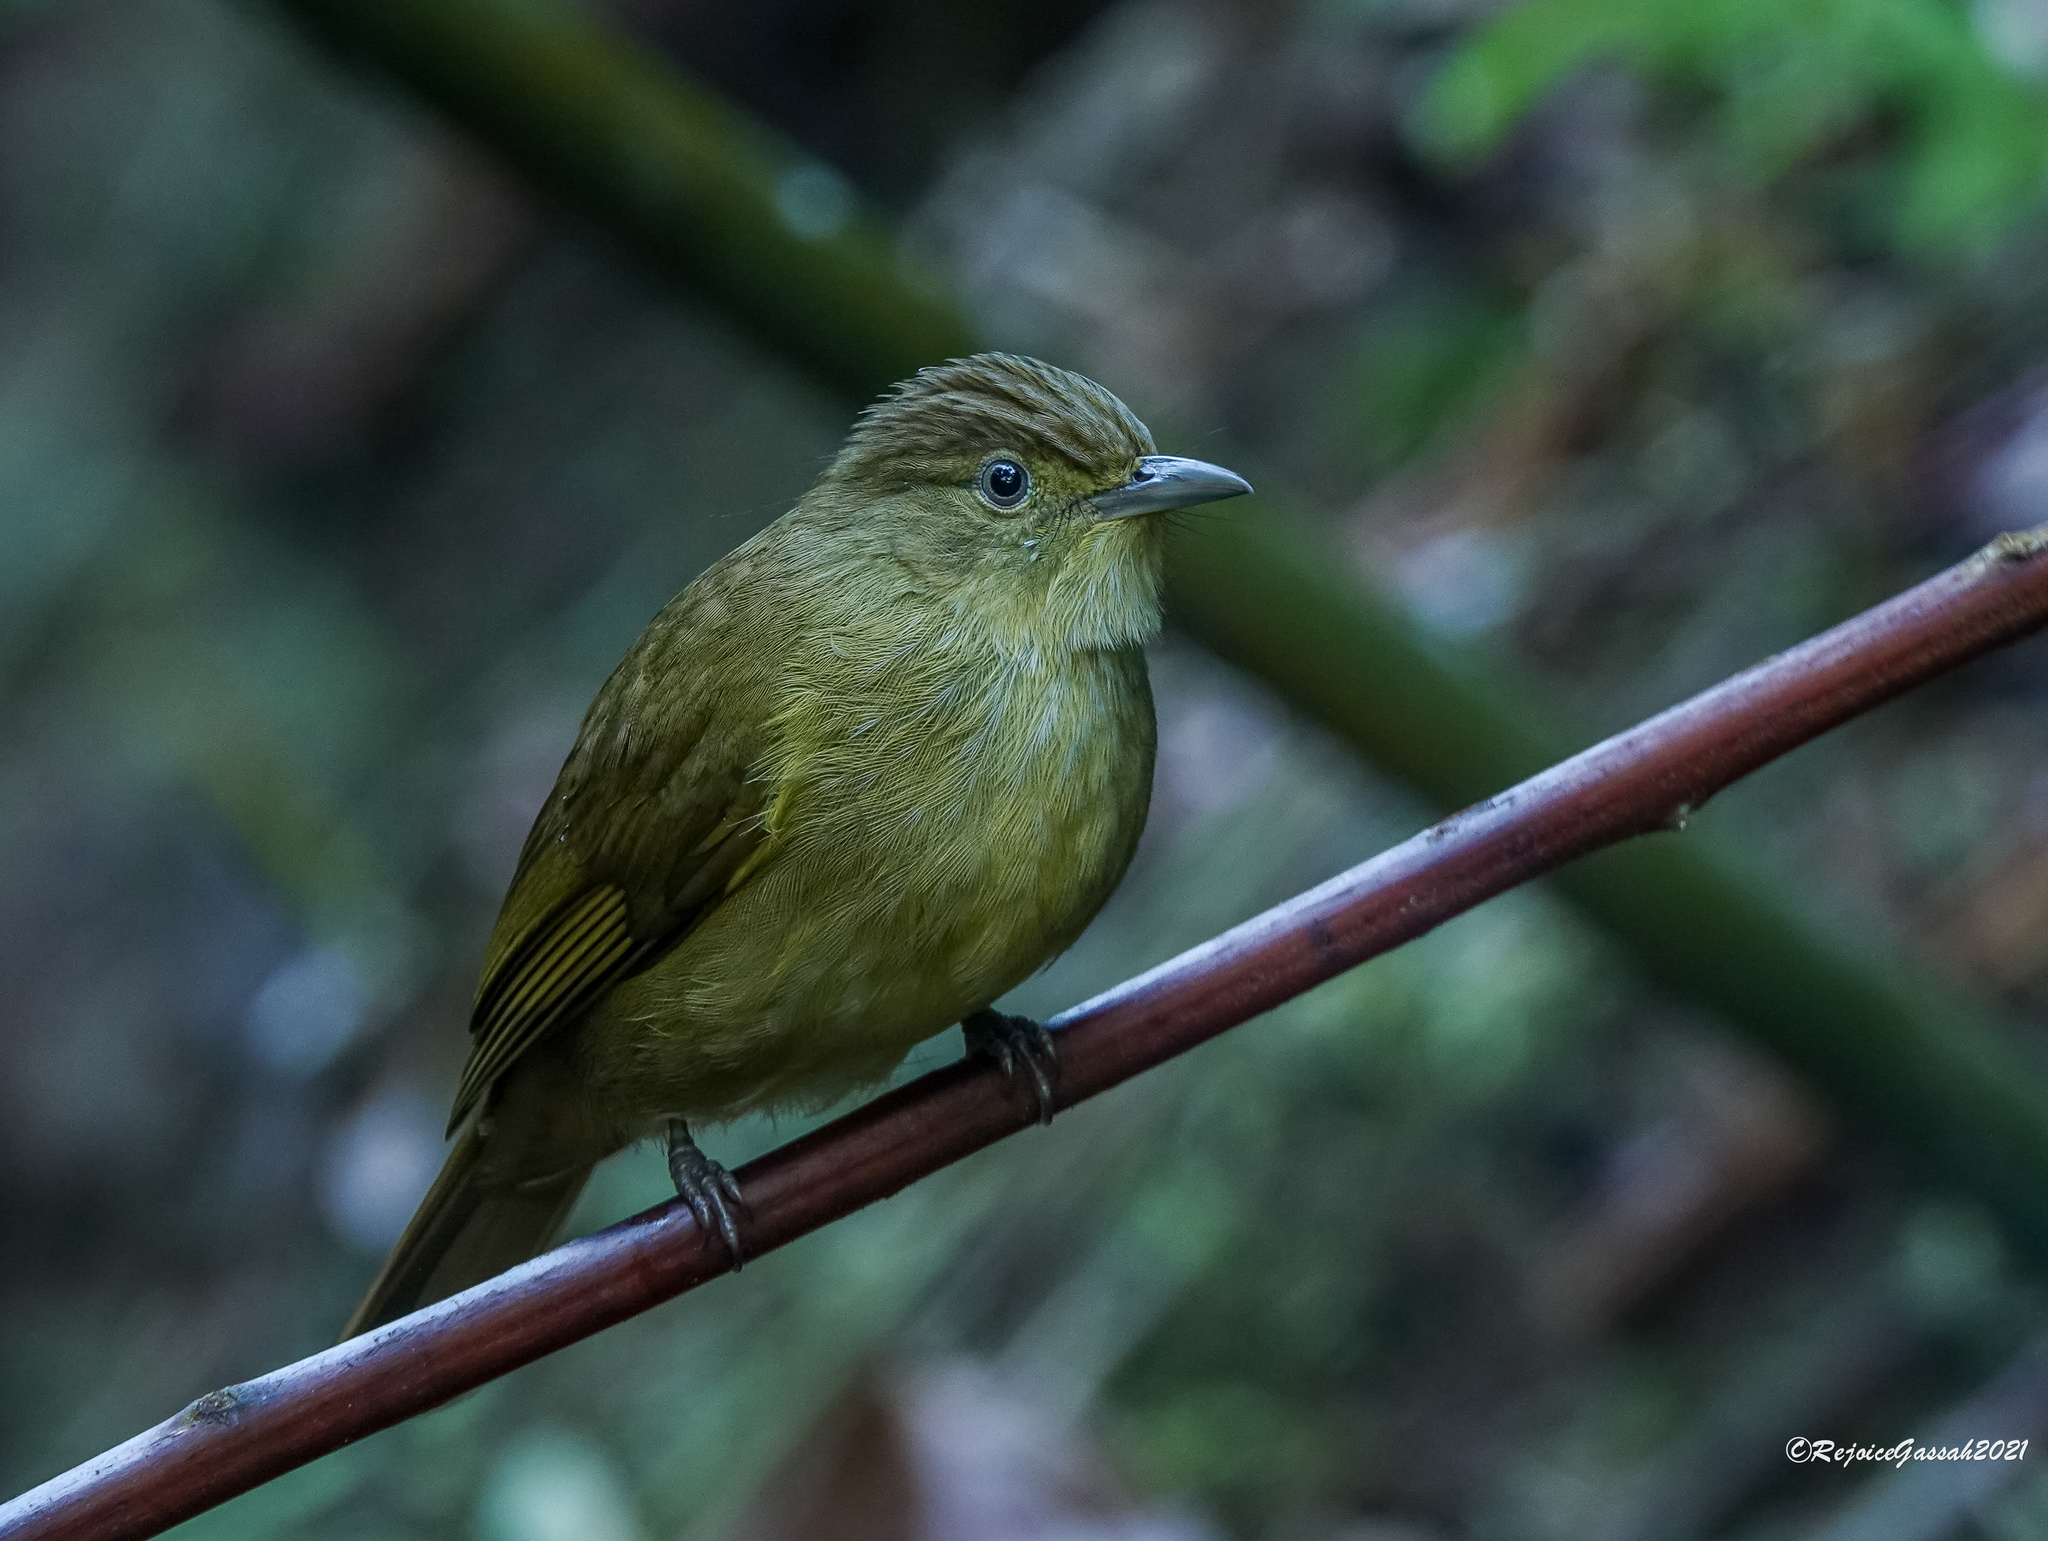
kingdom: Animalia
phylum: Chordata
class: Aves
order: Passeriformes
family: Pycnonotidae
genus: Iole
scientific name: Iole virescens
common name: Olive bulbul
